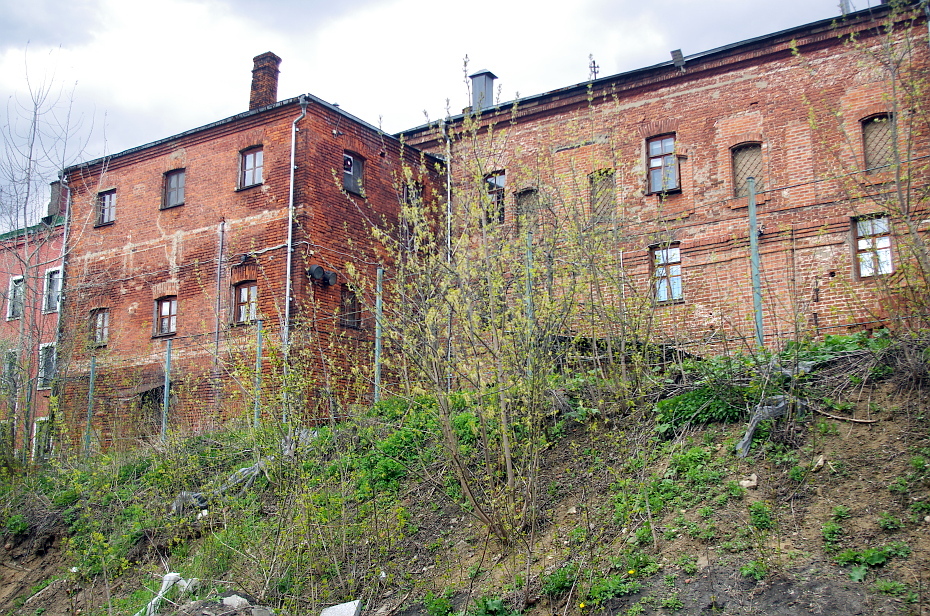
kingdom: Plantae
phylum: Tracheophyta
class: Magnoliopsida
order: Sapindales
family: Sapindaceae
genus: Acer
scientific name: Acer negundo
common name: Ashleaf maple
